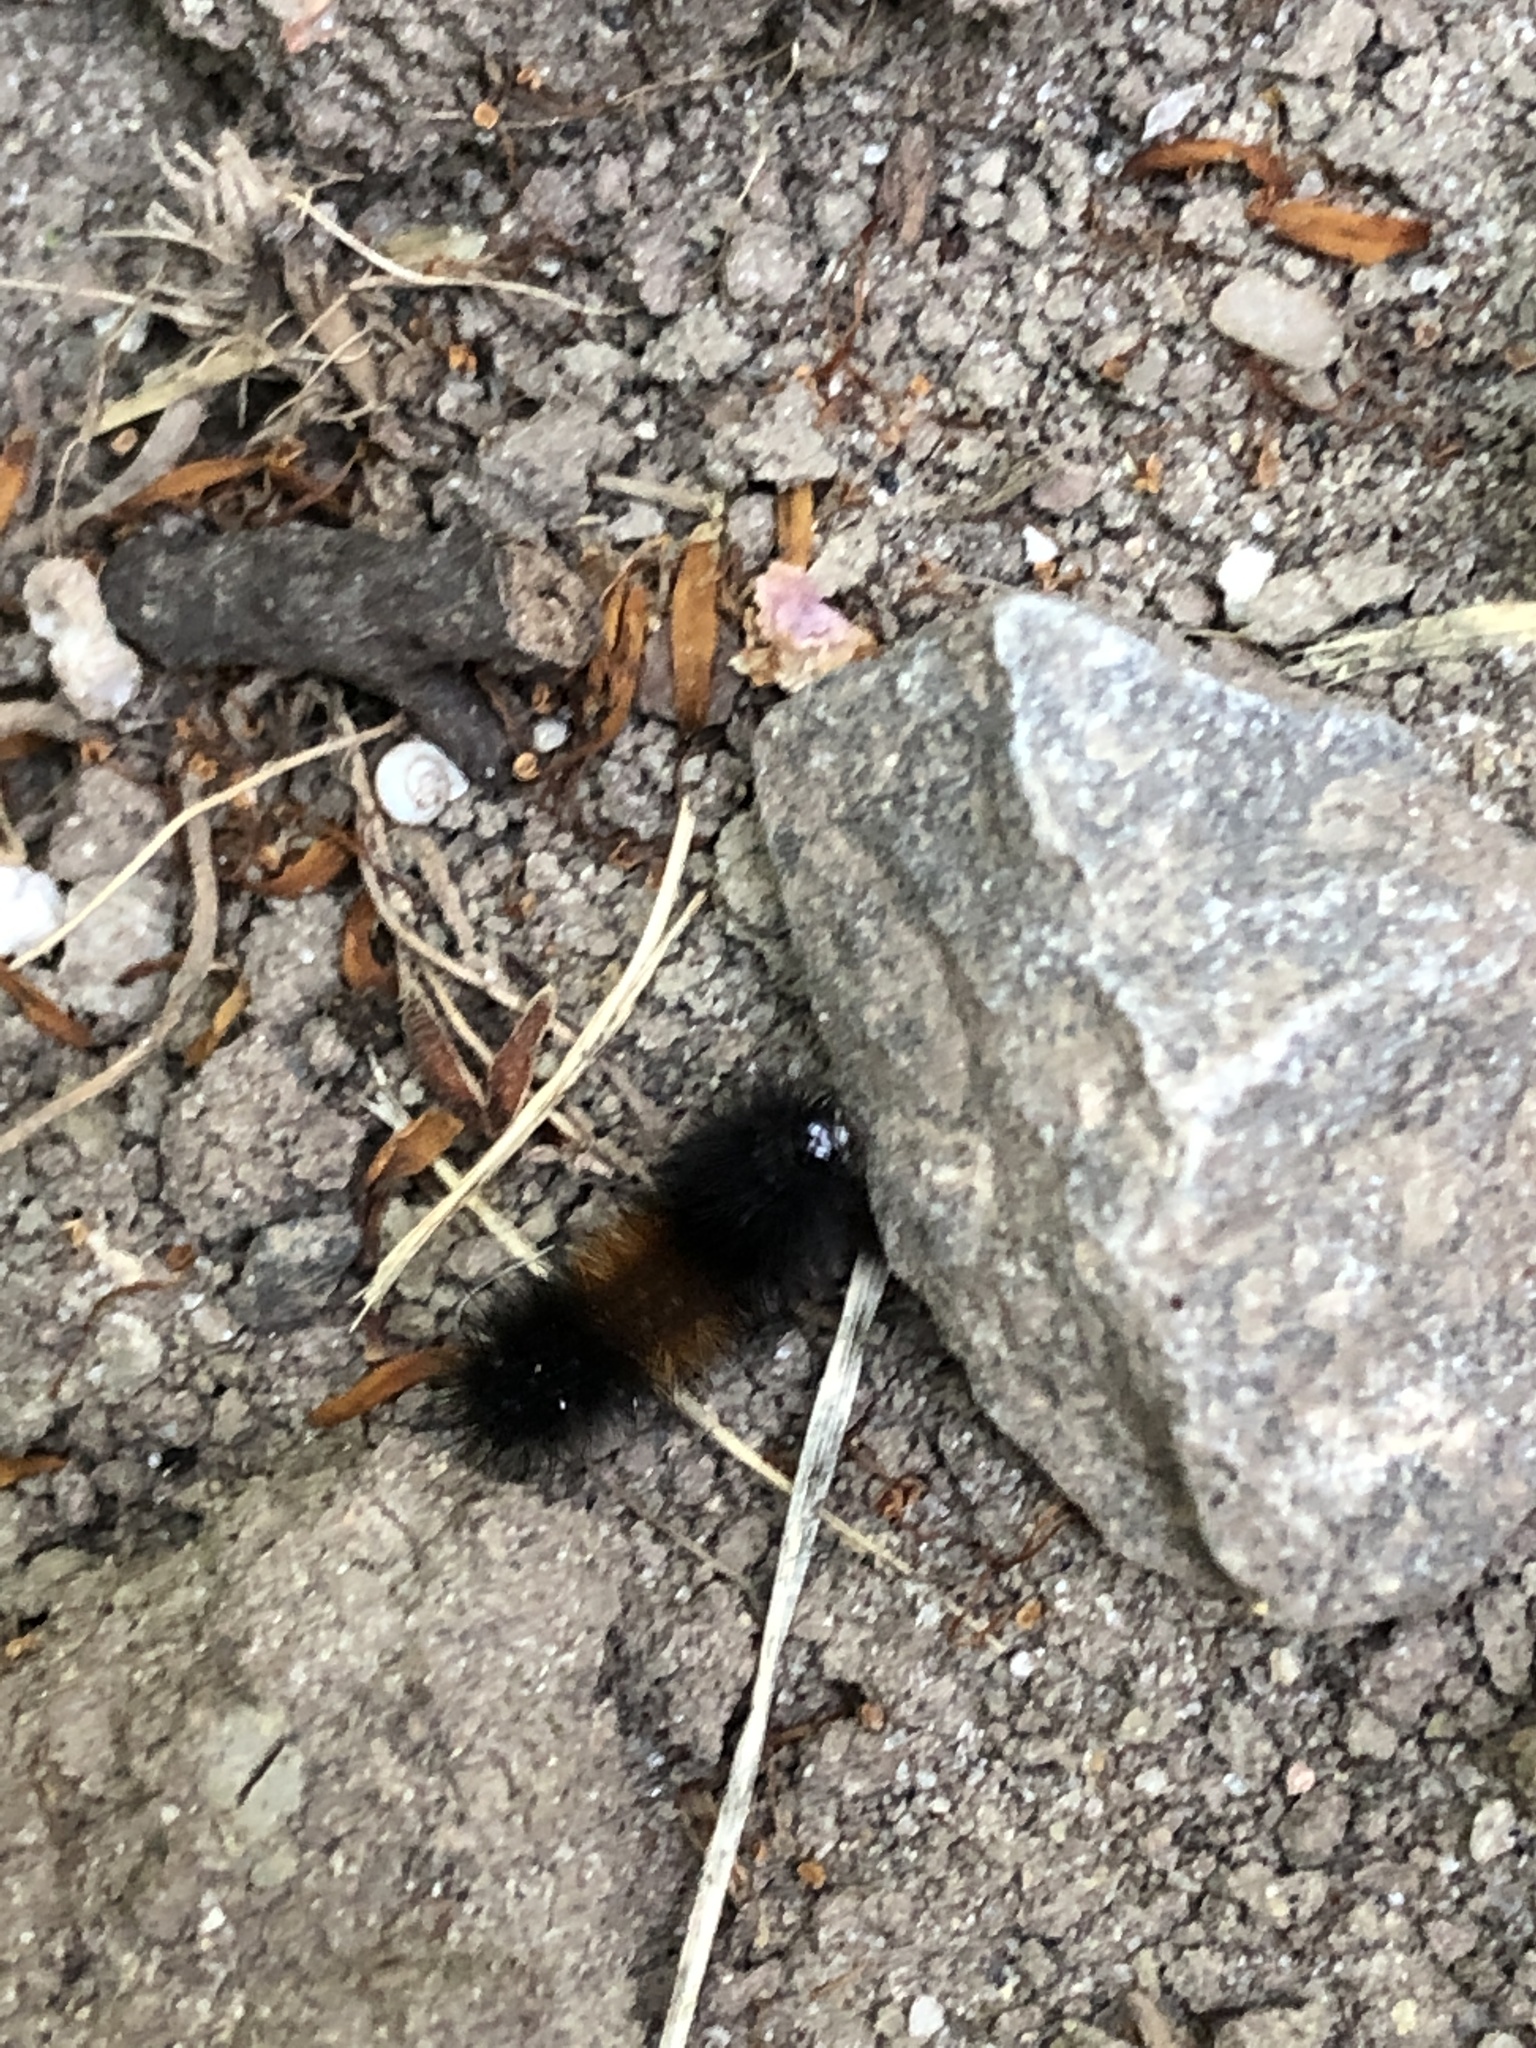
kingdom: Animalia
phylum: Arthropoda
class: Insecta
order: Lepidoptera
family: Erebidae
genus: Pyrrharctia
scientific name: Pyrrharctia isabella
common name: Isabella tiger moth
